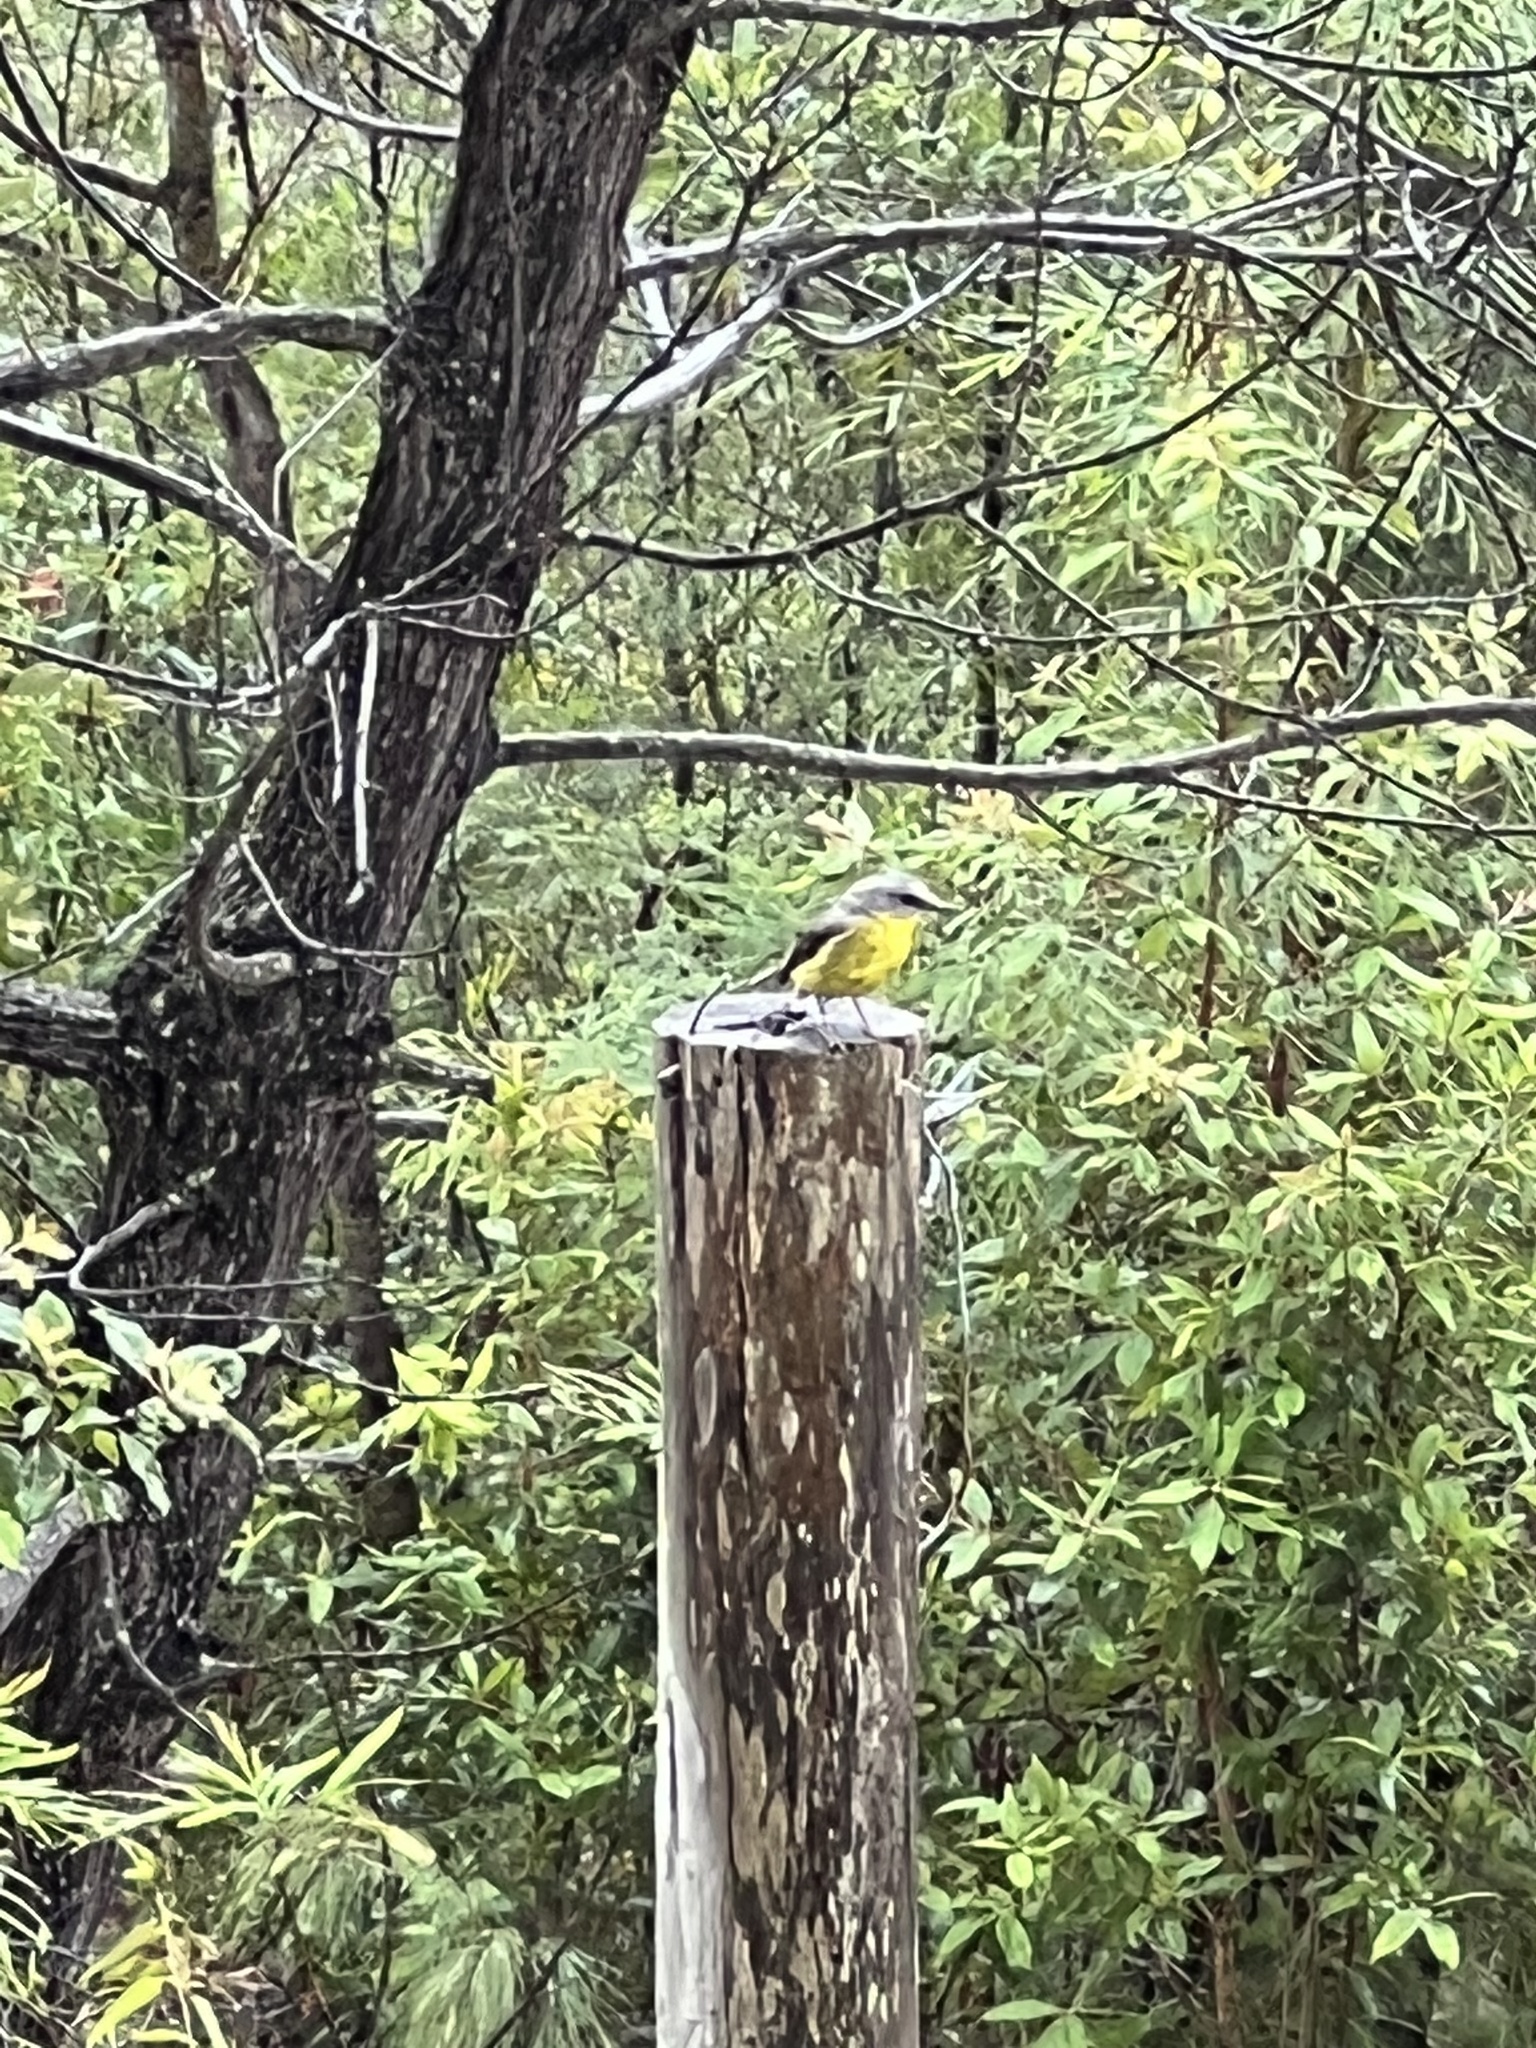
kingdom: Animalia
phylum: Chordata
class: Aves
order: Passeriformes
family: Petroicidae
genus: Eopsaltria
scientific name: Eopsaltria australis
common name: Eastern yellow robin
